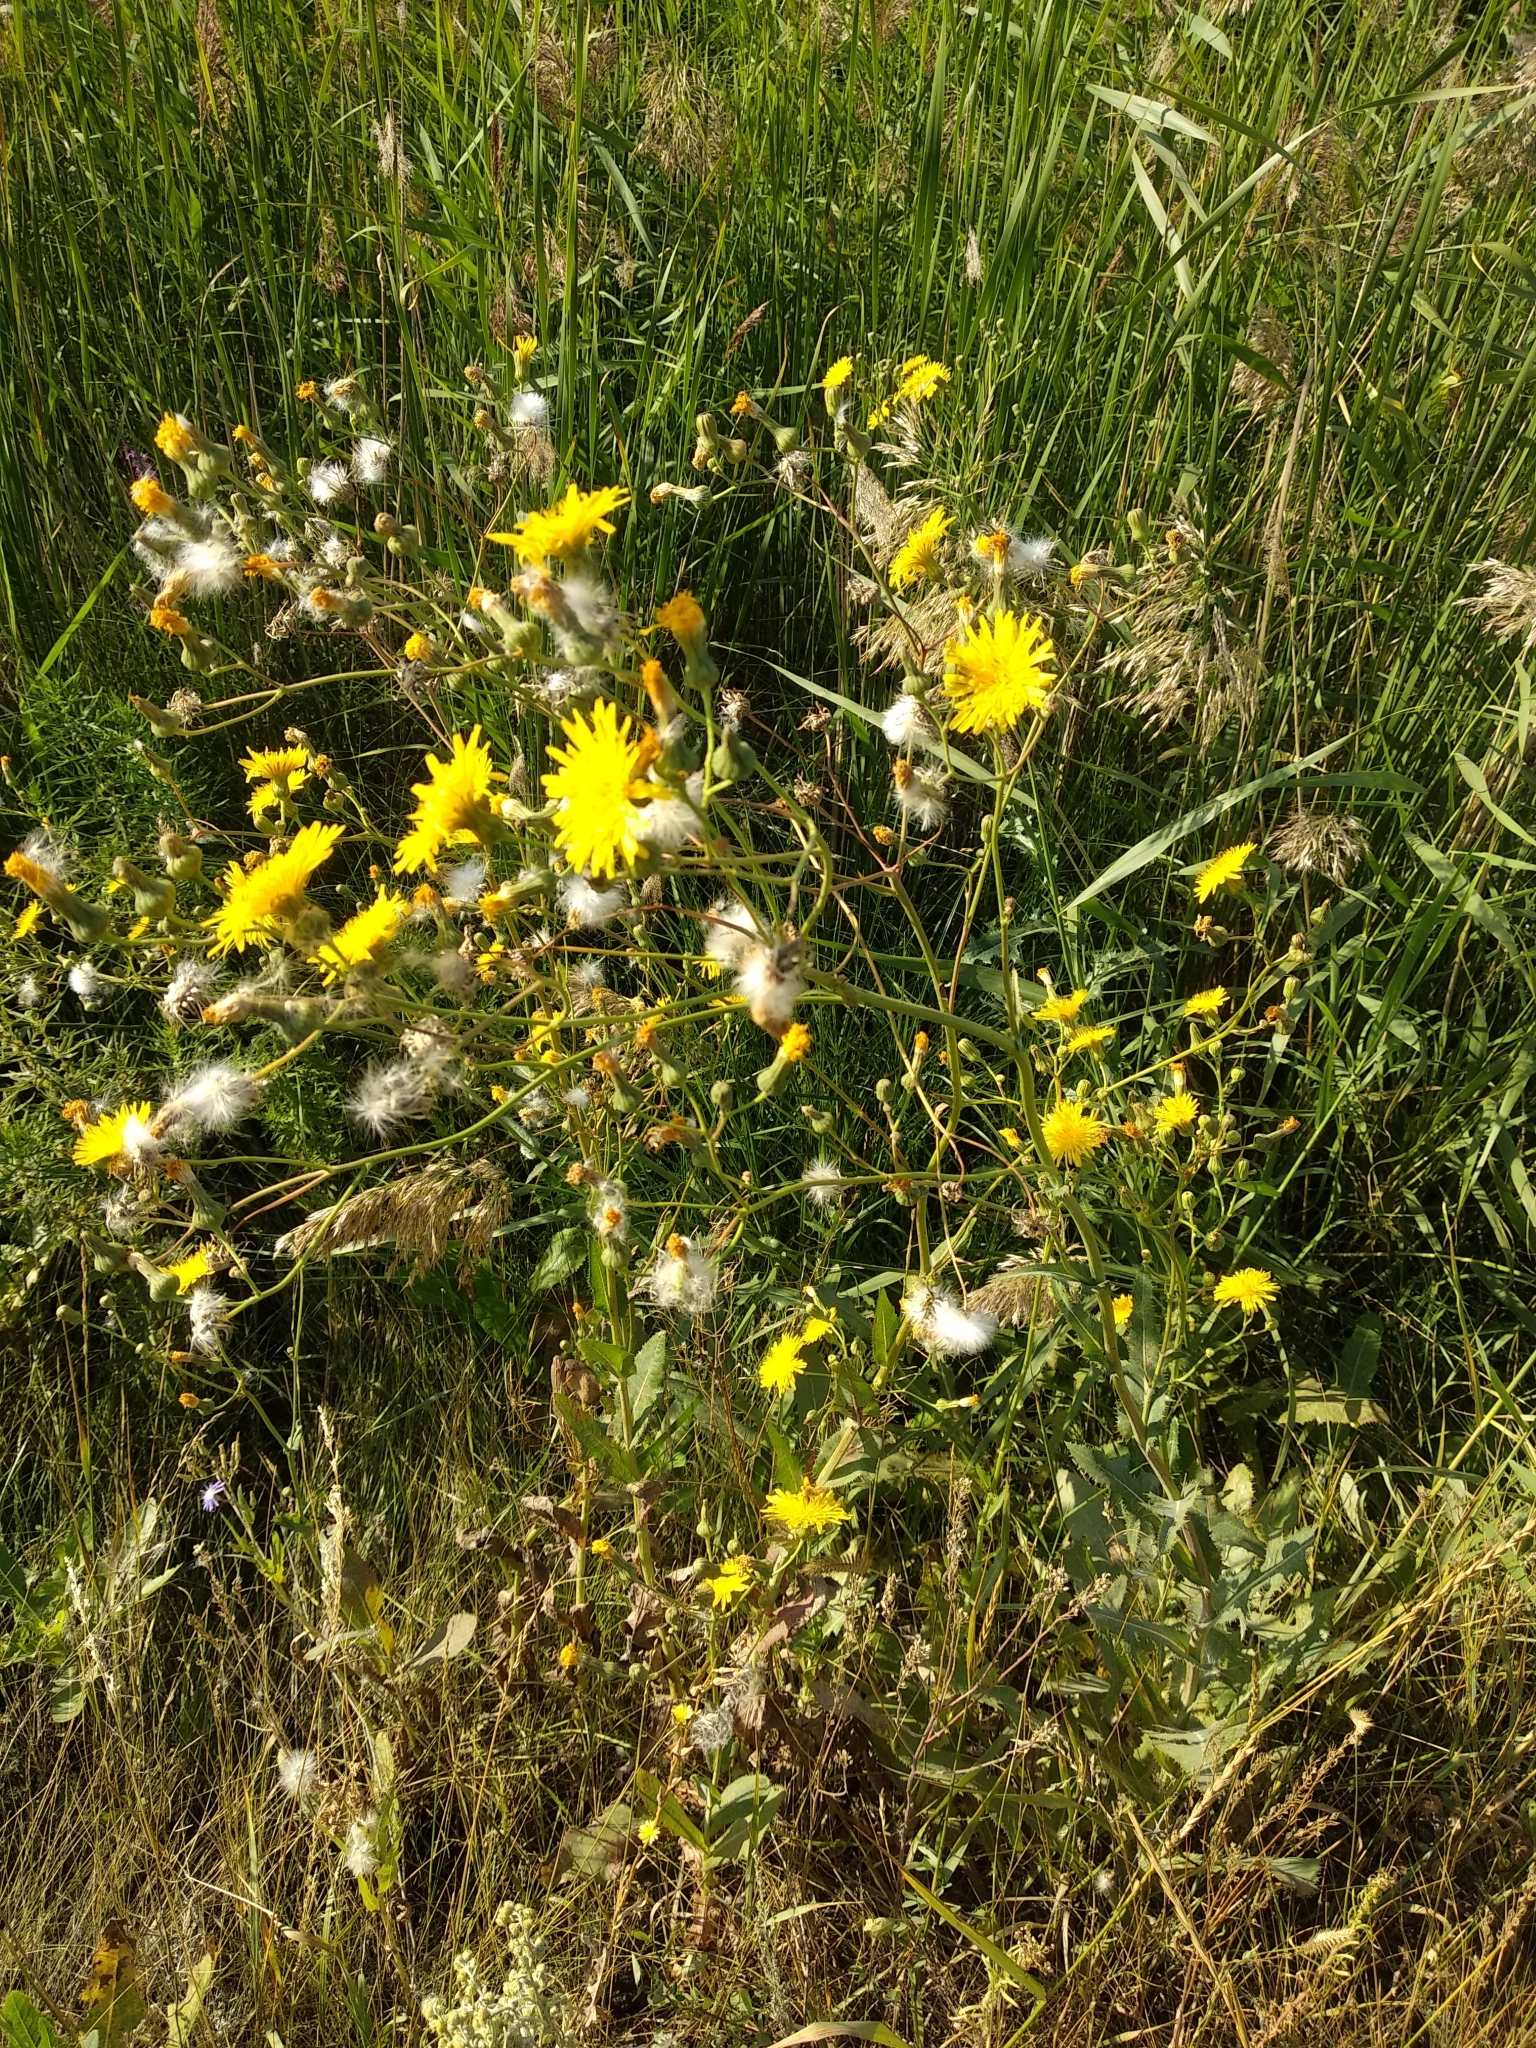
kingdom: Plantae
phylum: Tracheophyta
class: Magnoliopsida
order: Asterales
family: Asteraceae
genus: Sonchus
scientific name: Sonchus arvensis
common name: Perennial sow-thistle
